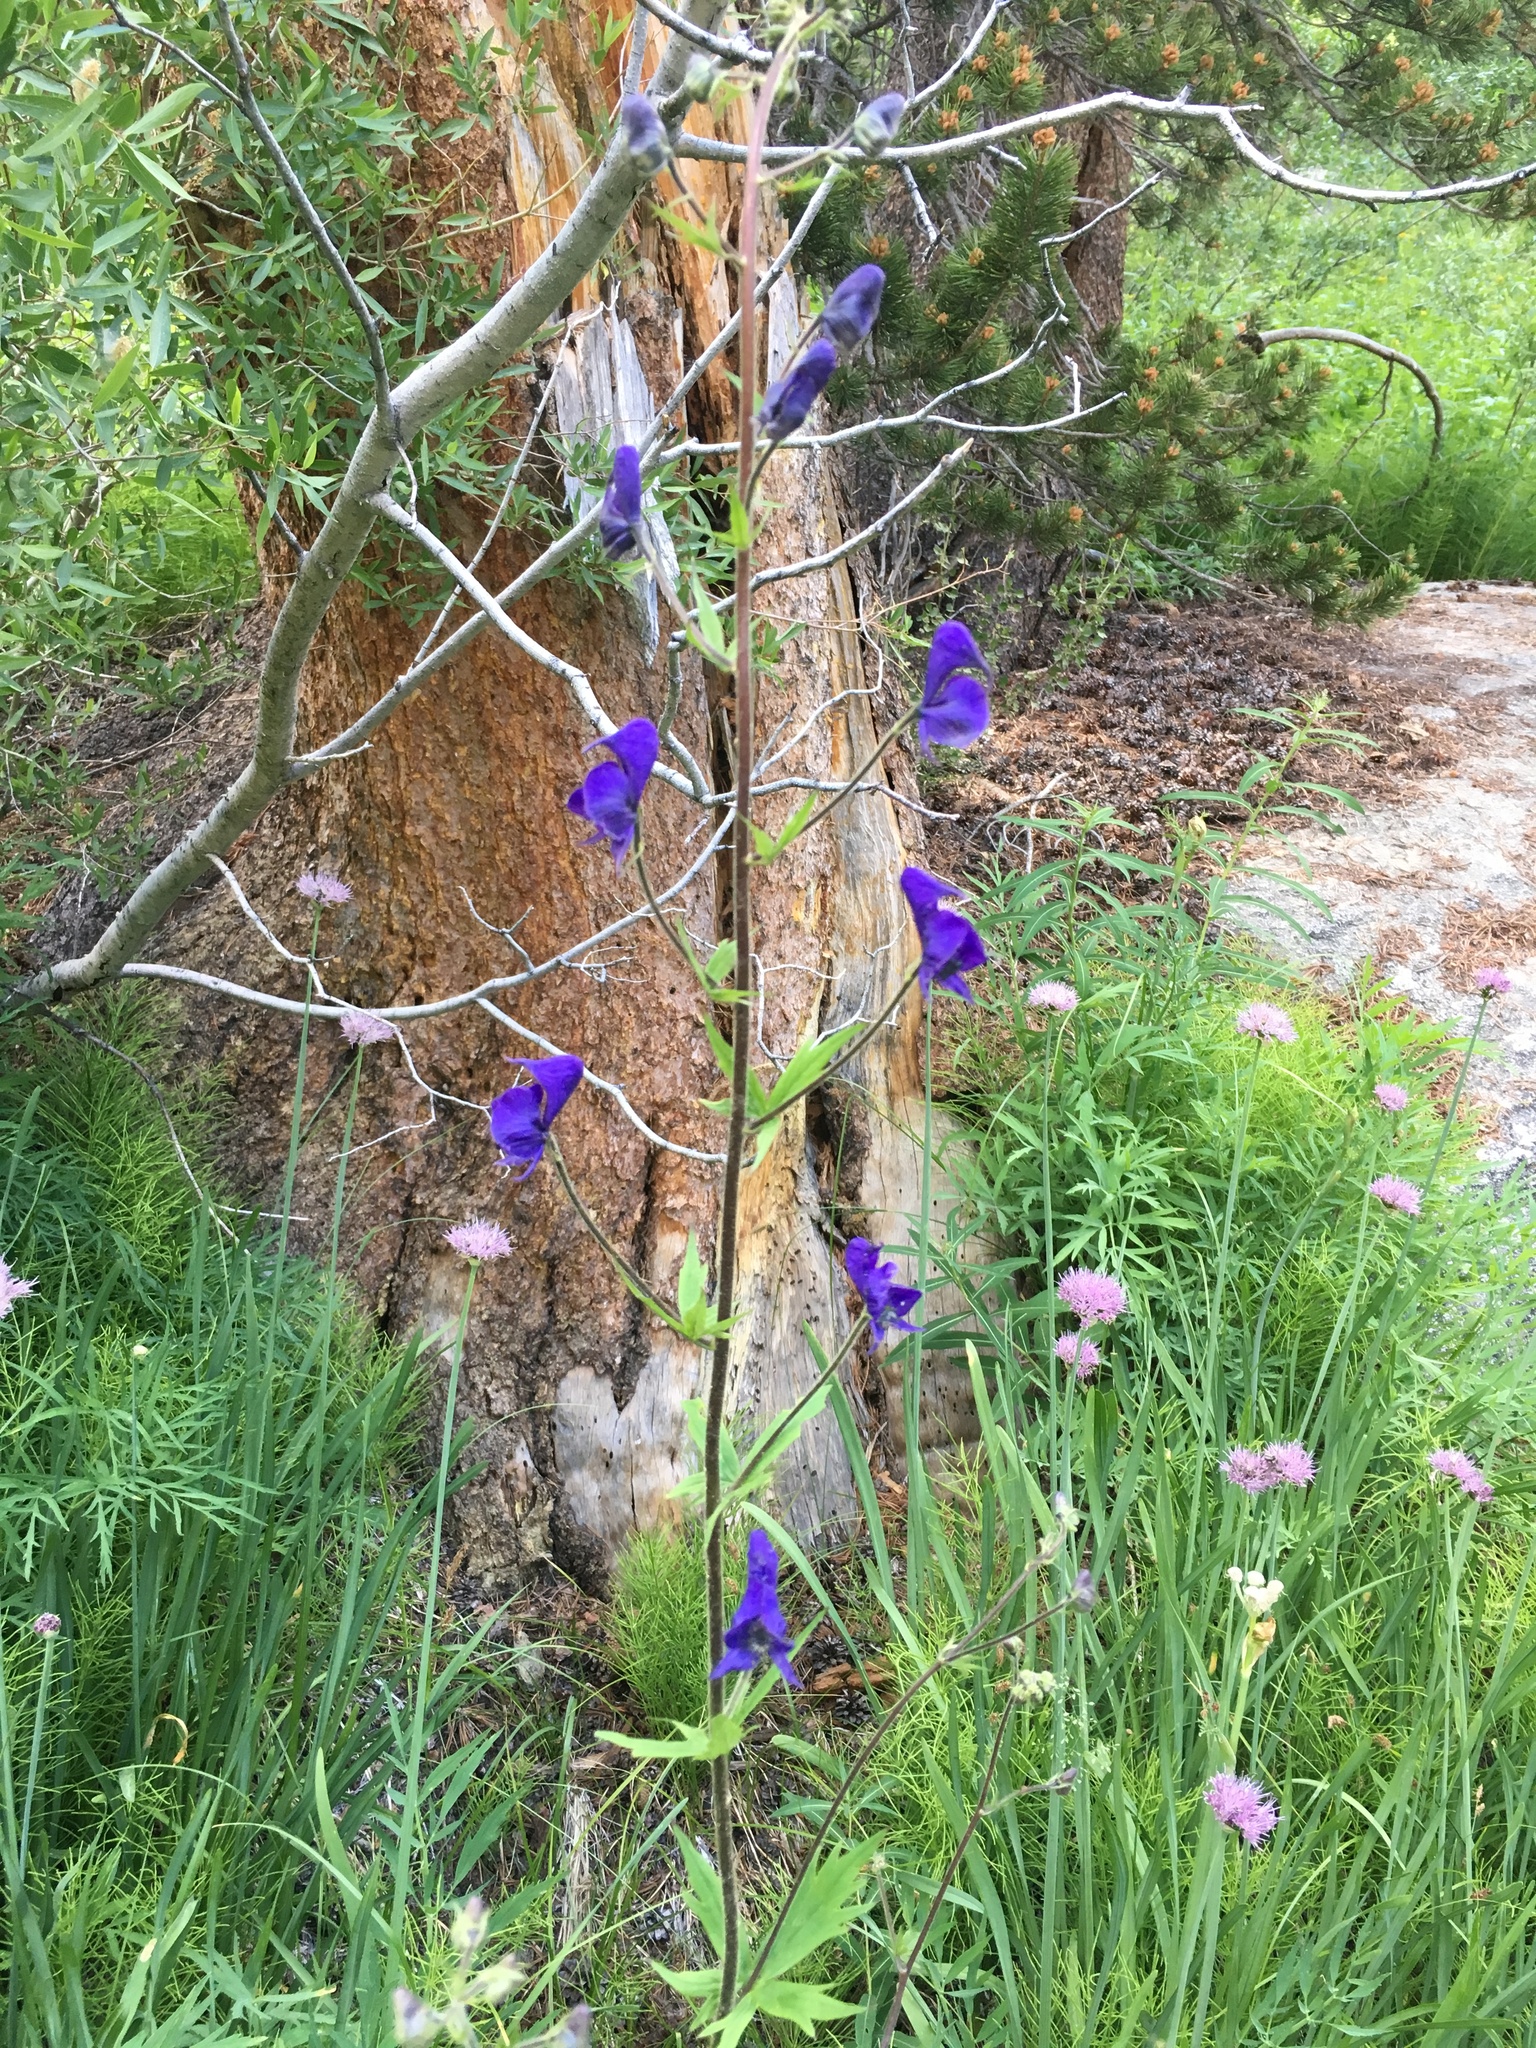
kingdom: Plantae
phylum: Tracheophyta
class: Magnoliopsida
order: Ranunculales
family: Ranunculaceae
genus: Aconitum
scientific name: Aconitum columbianum
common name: Columbia aconite
